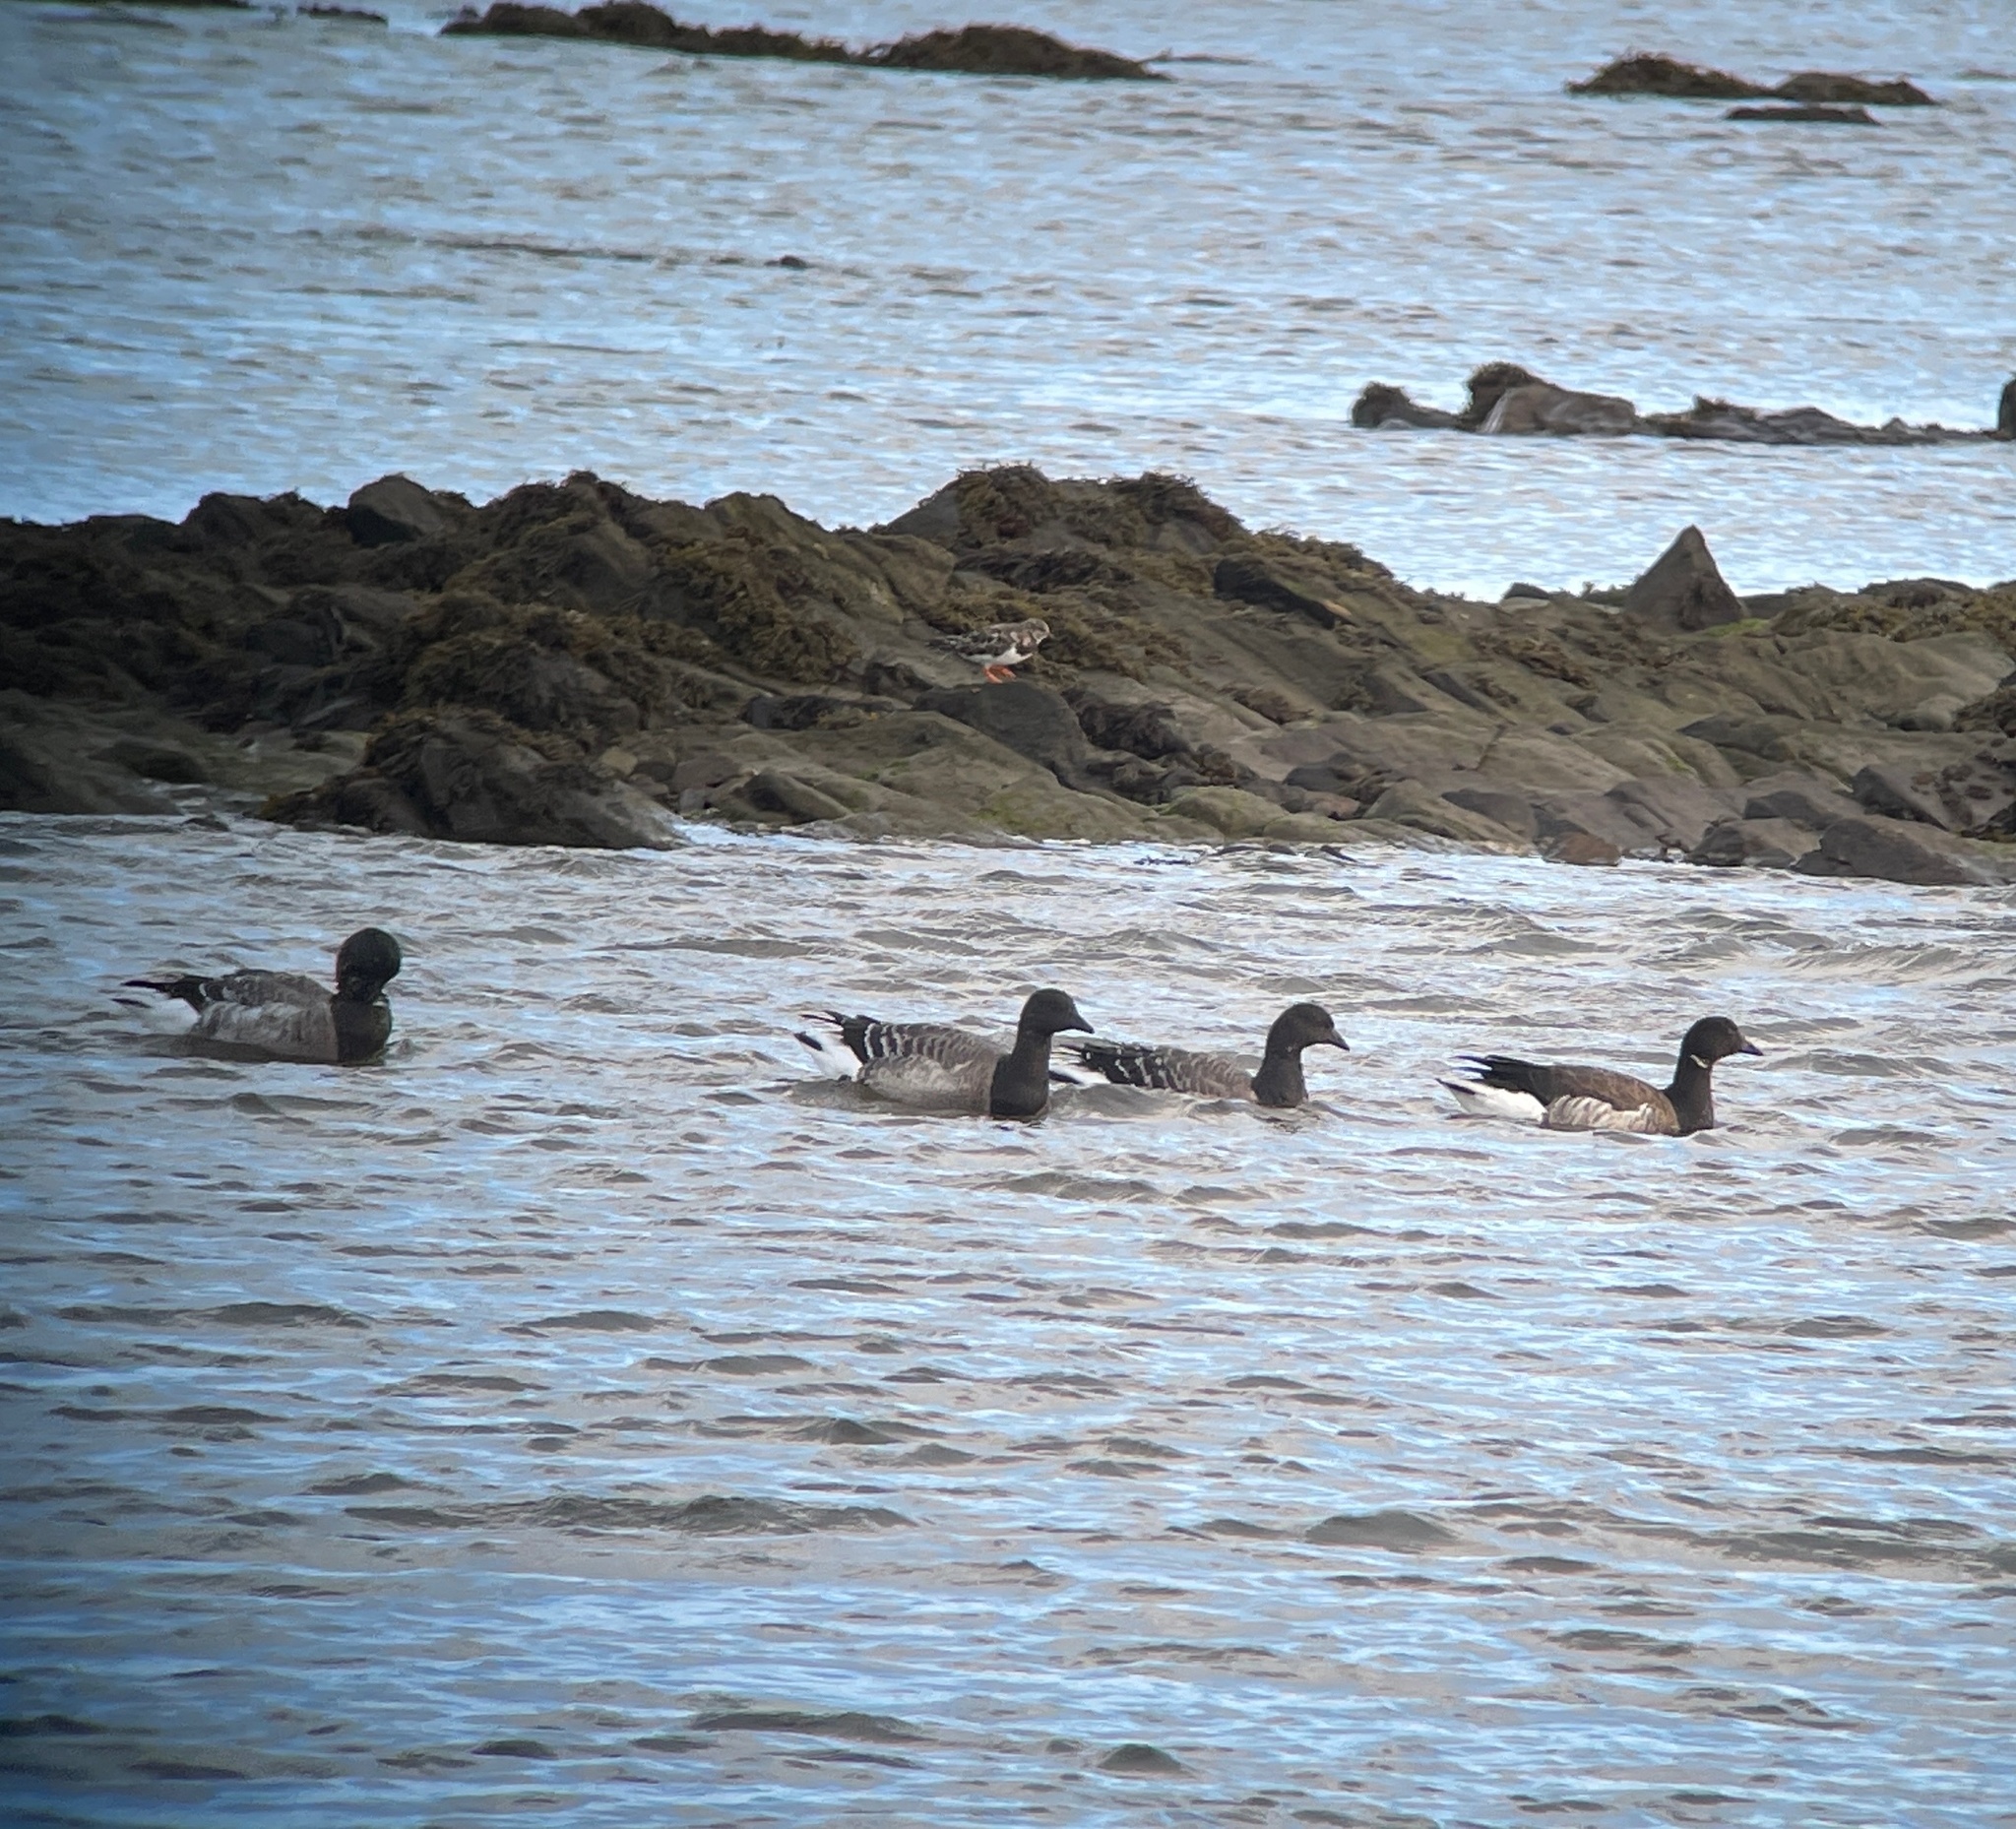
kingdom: Animalia
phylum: Chordata
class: Aves
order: Anseriformes
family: Anatidae
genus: Branta
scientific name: Branta bernicla
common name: Brant goose
